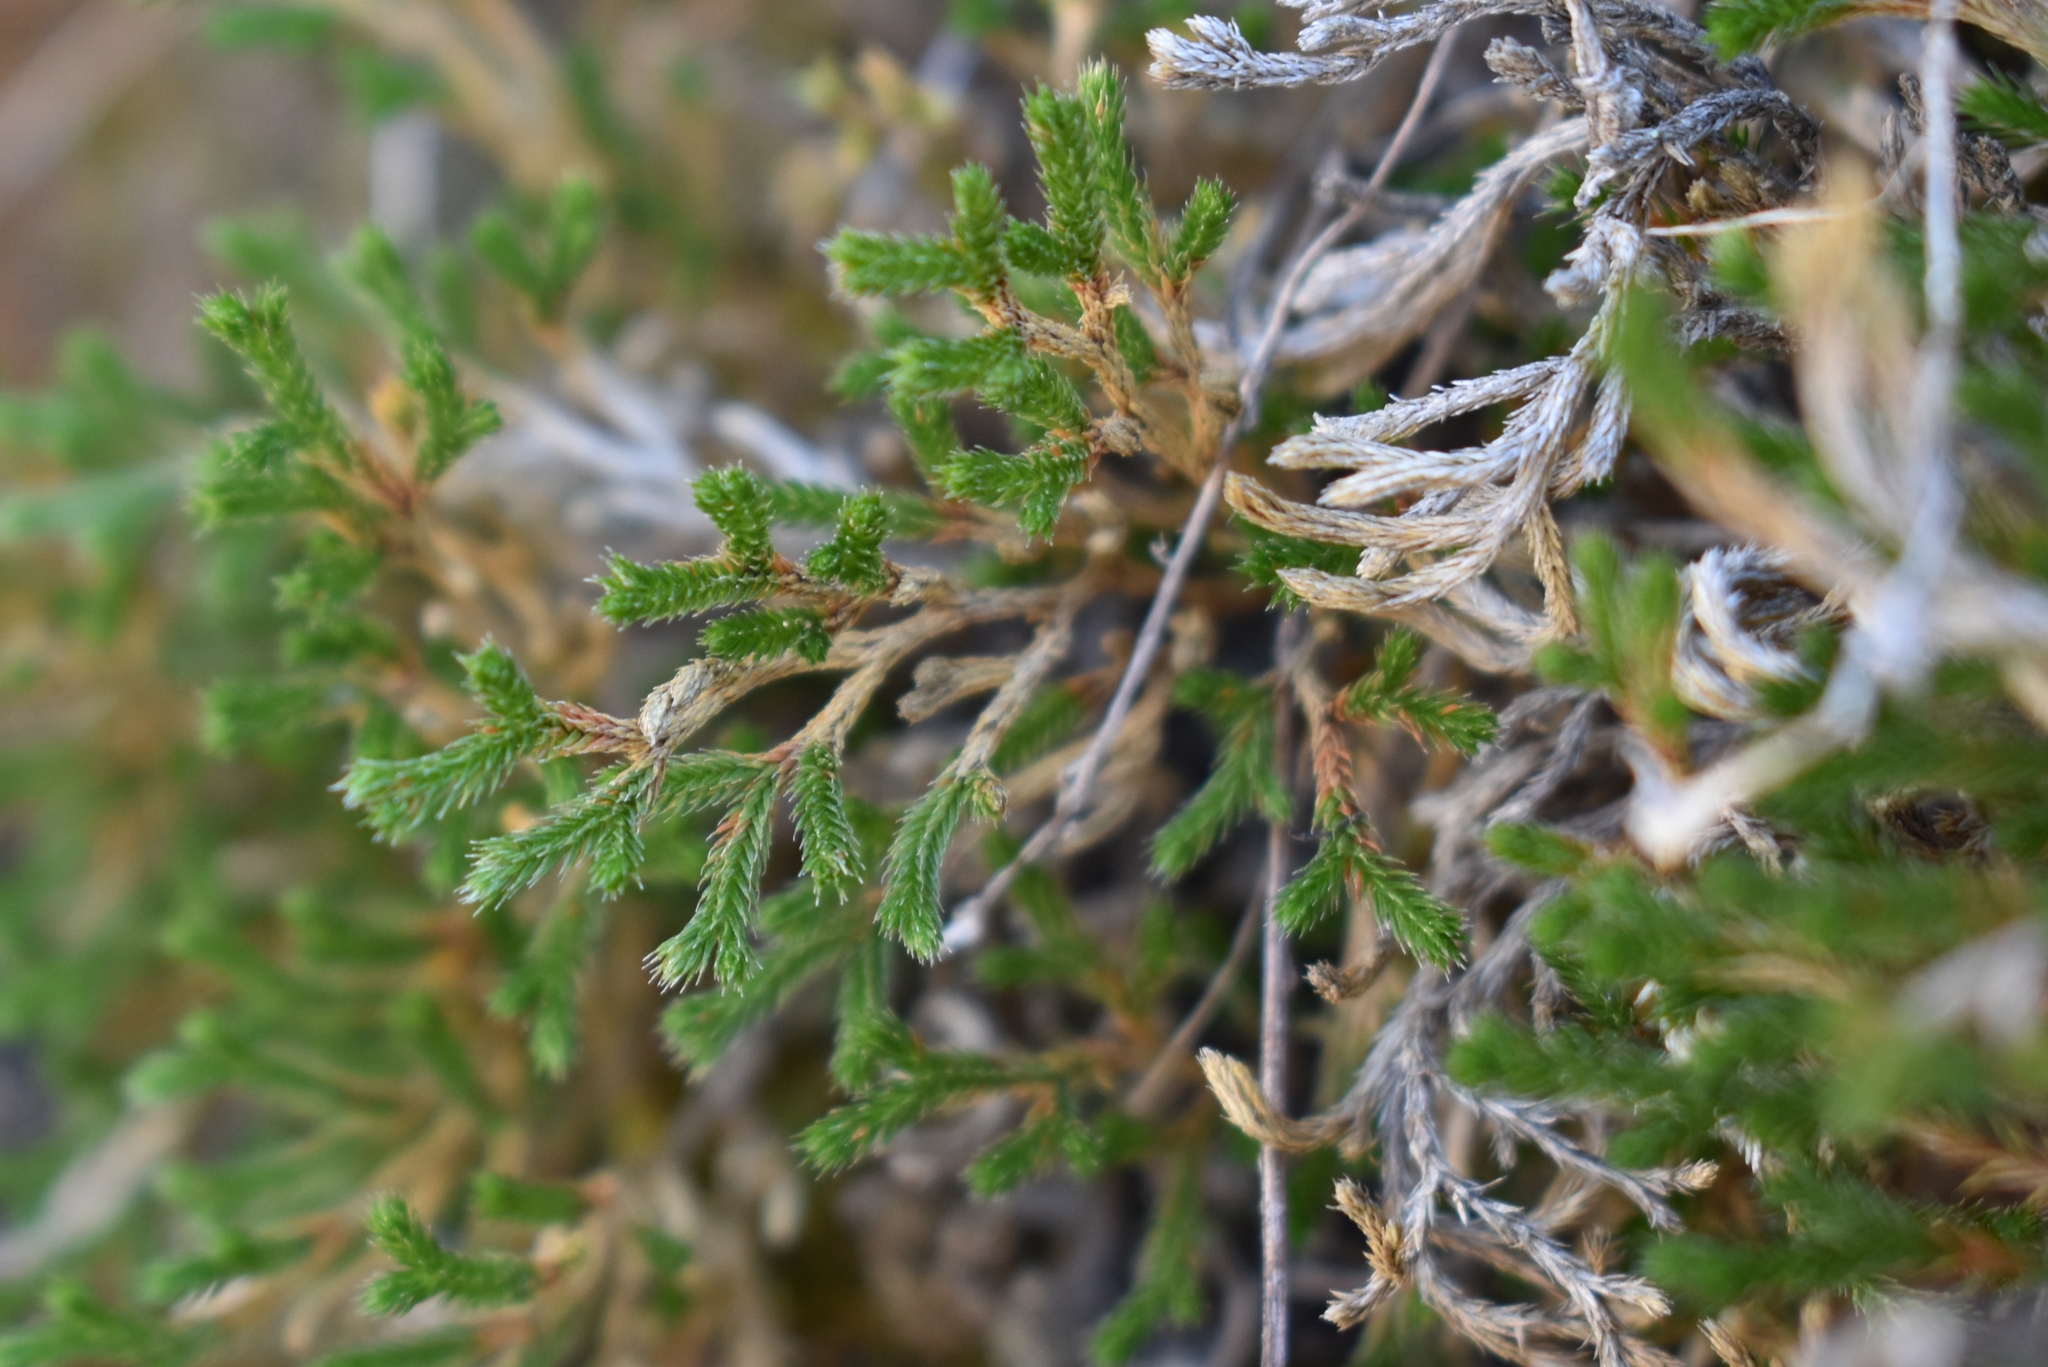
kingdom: Plantae
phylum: Tracheophyta
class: Lycopodiopsida
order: Selaginellales
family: Selaginellaceae
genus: Selaginella
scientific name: Selaginella bigelovii
